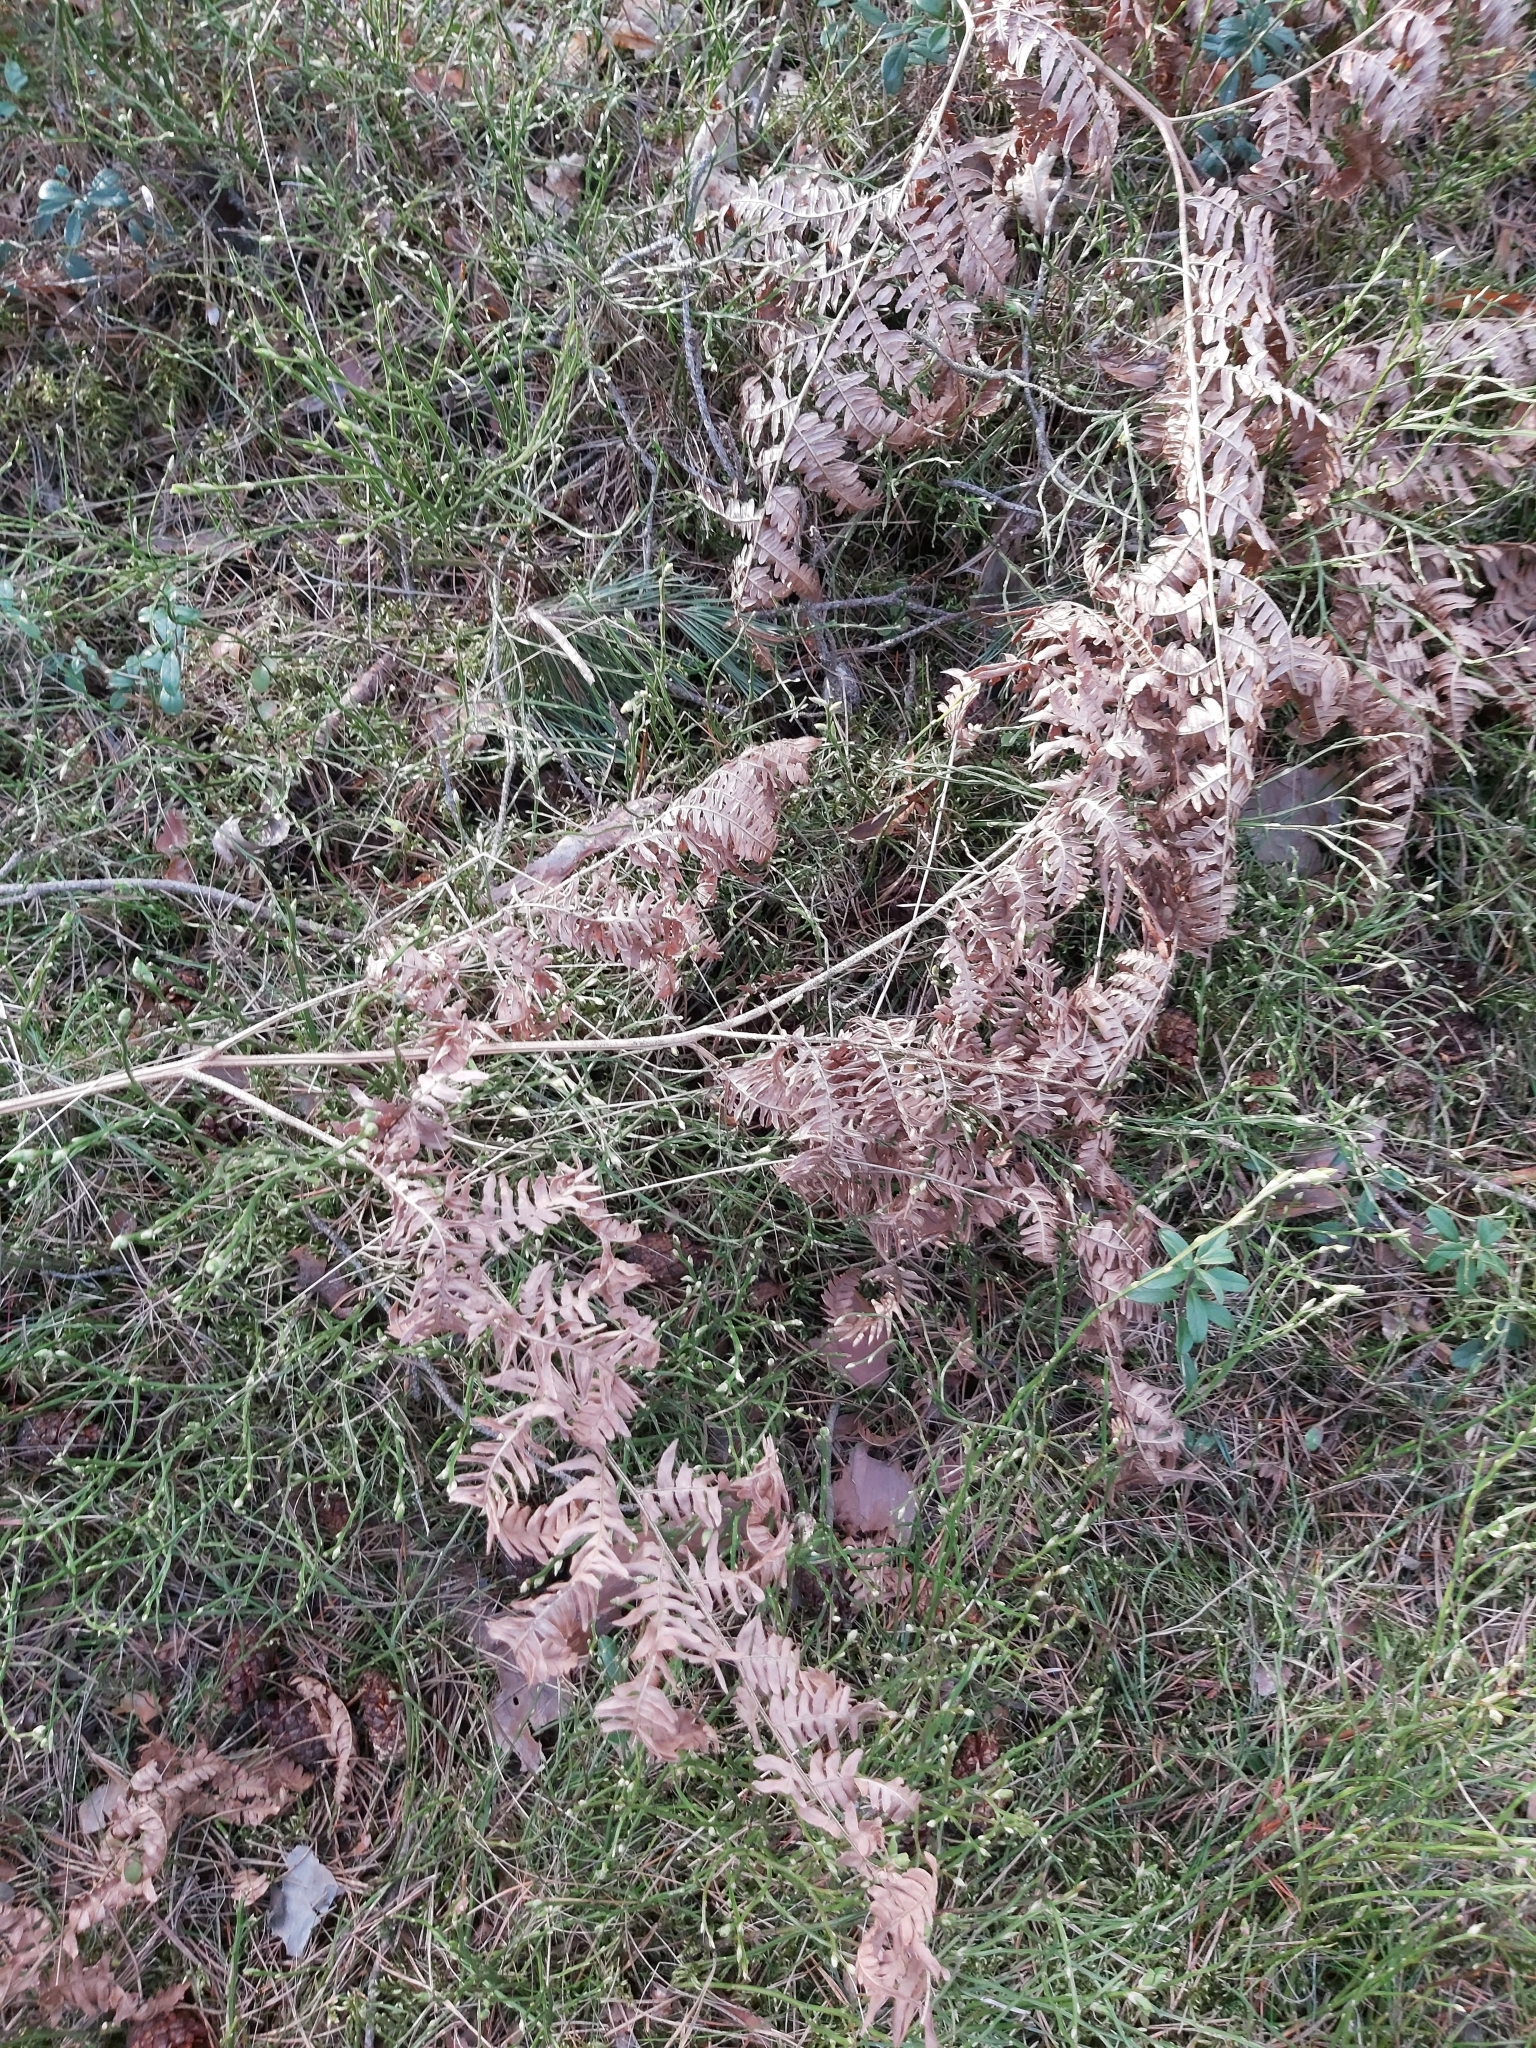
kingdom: Plantae
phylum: Tracheophyta
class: Polypodiopsida
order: Polypodiales
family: Dennstaedtiaceae
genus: Pteridium
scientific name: Pteridium aquilinum
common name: Bracken
